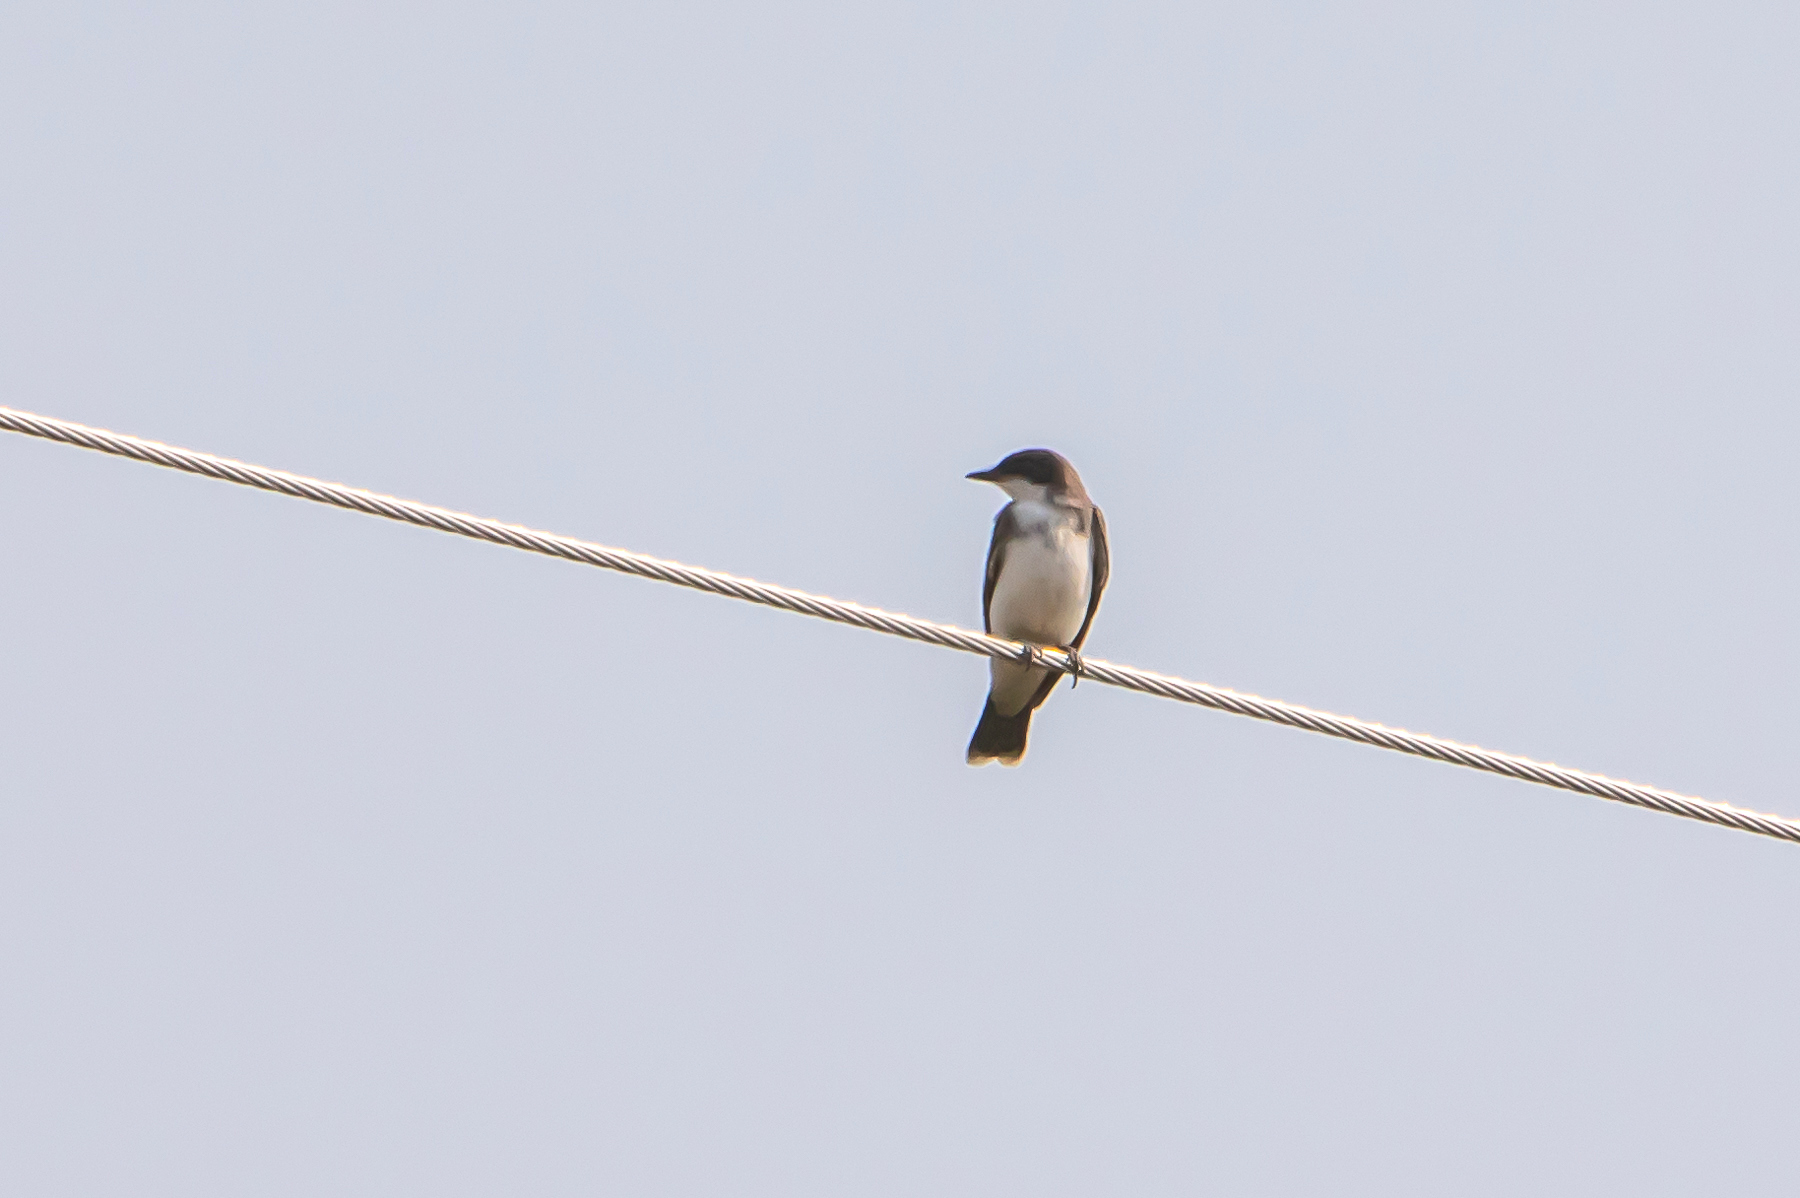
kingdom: Animalia
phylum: Chordata
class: Aves
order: Passeriformes
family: Tyrannidae
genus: Tyrannus
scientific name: Tyrannus tyrannus
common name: Eastern kingbird
